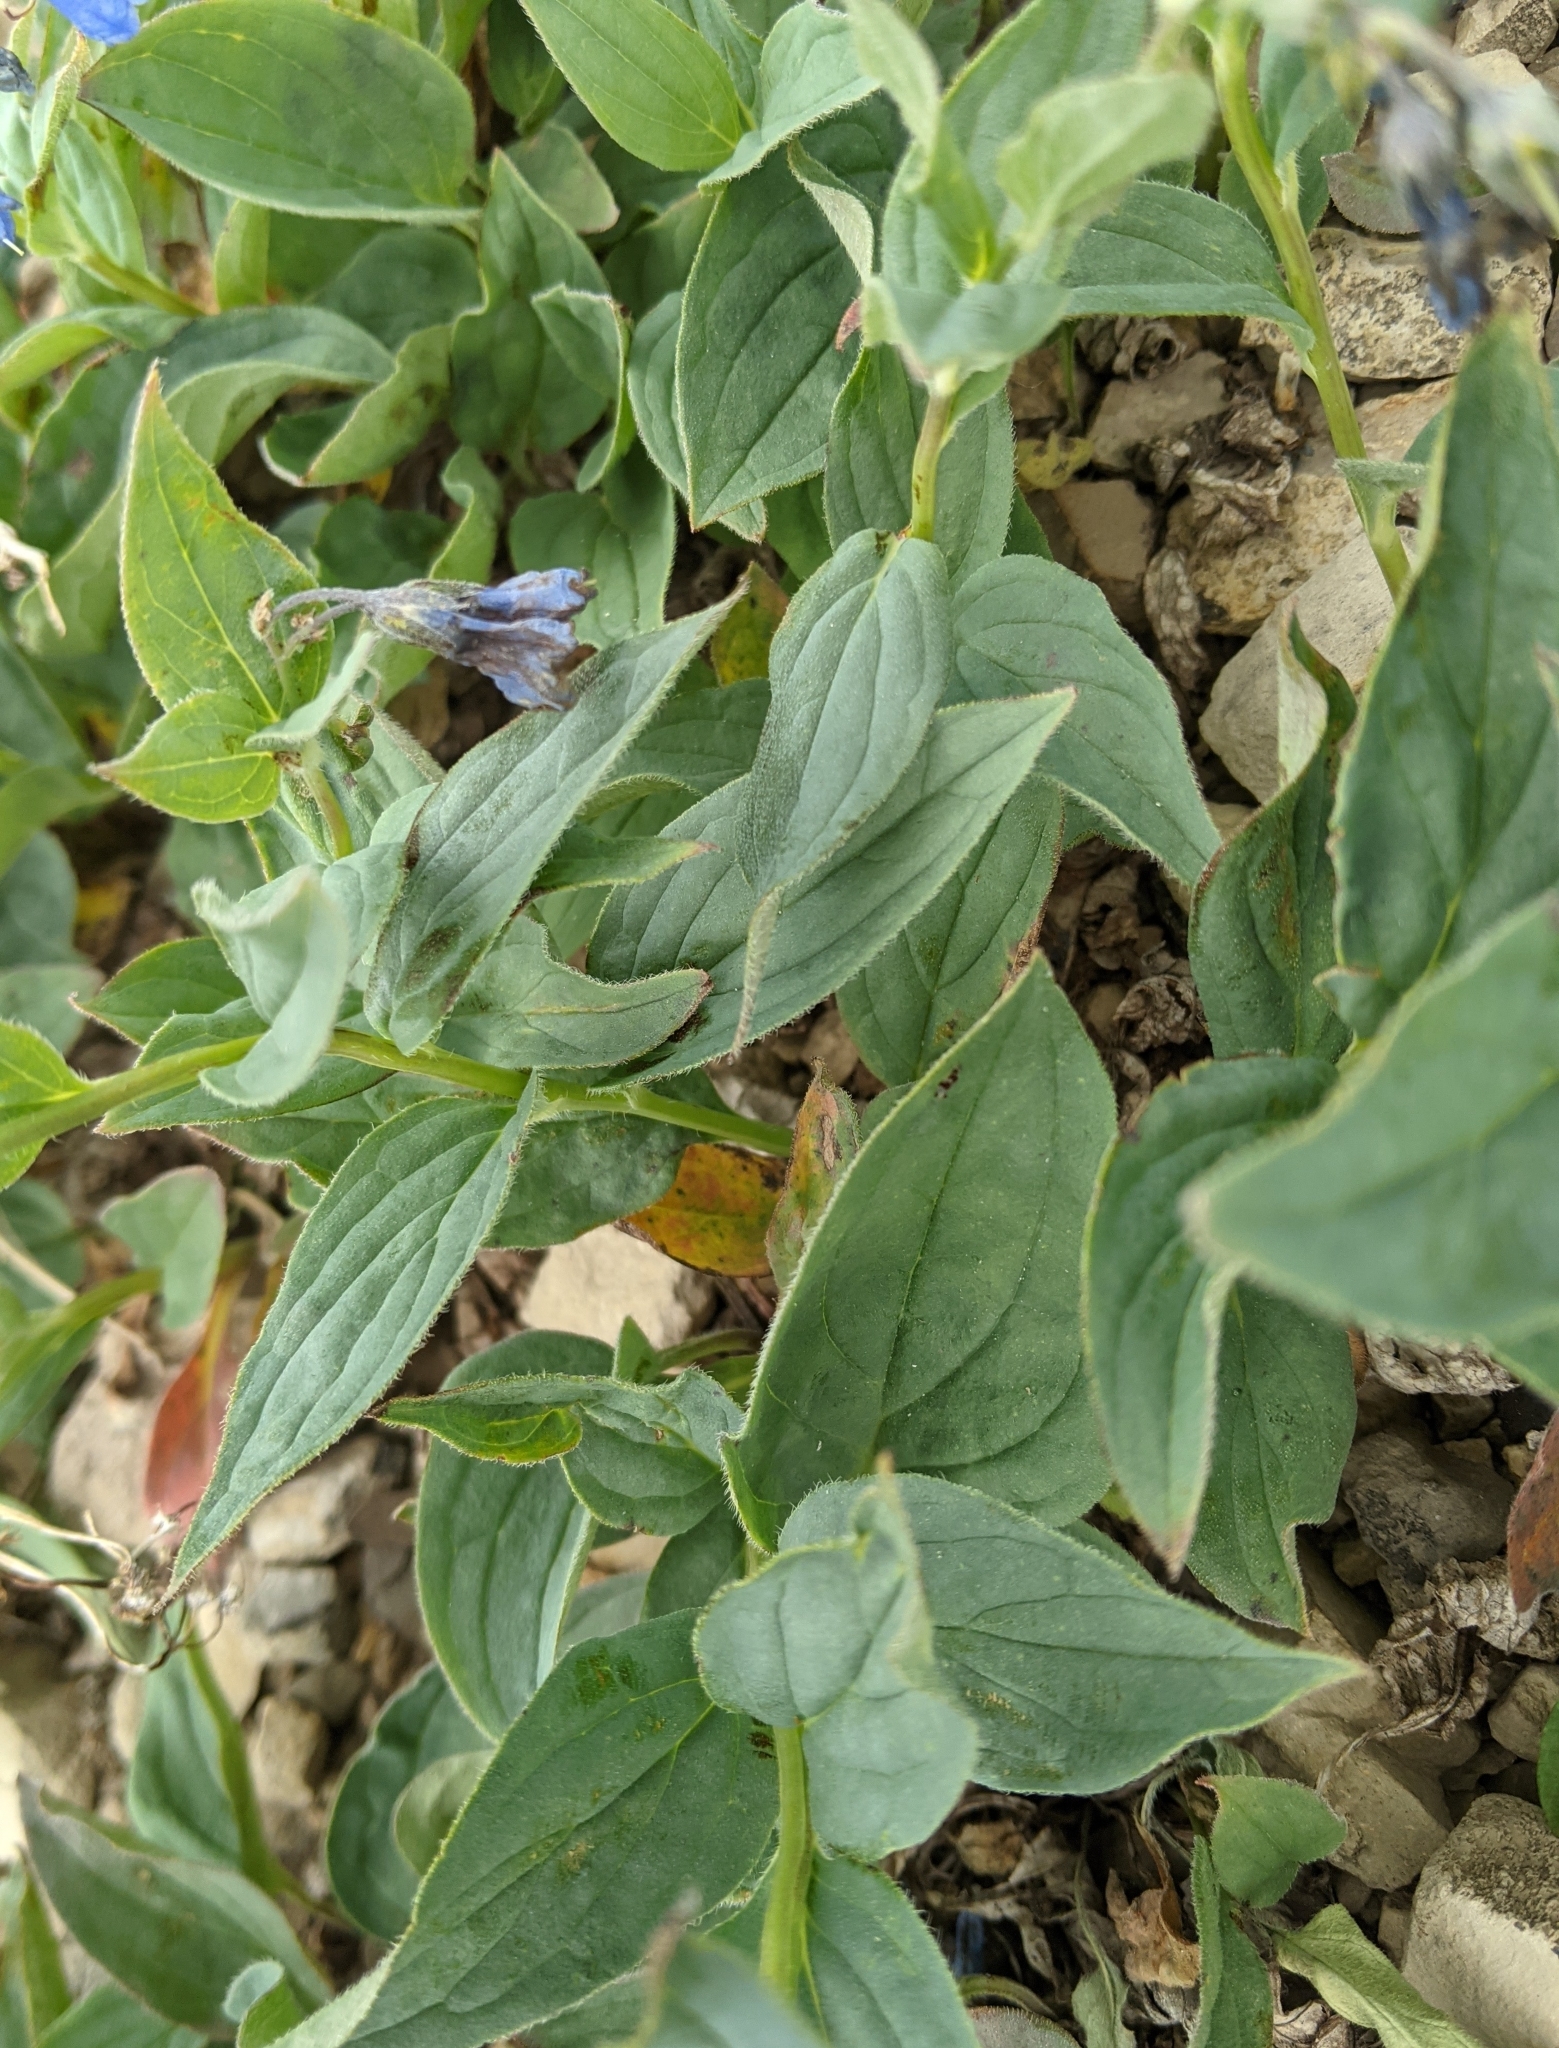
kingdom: Plantae
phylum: Tracheophyta
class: Magnoliopsida
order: Boraginales
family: Boraginaceae
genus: Mertensia
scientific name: Mertensia paniculata
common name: Panicled bluebells
